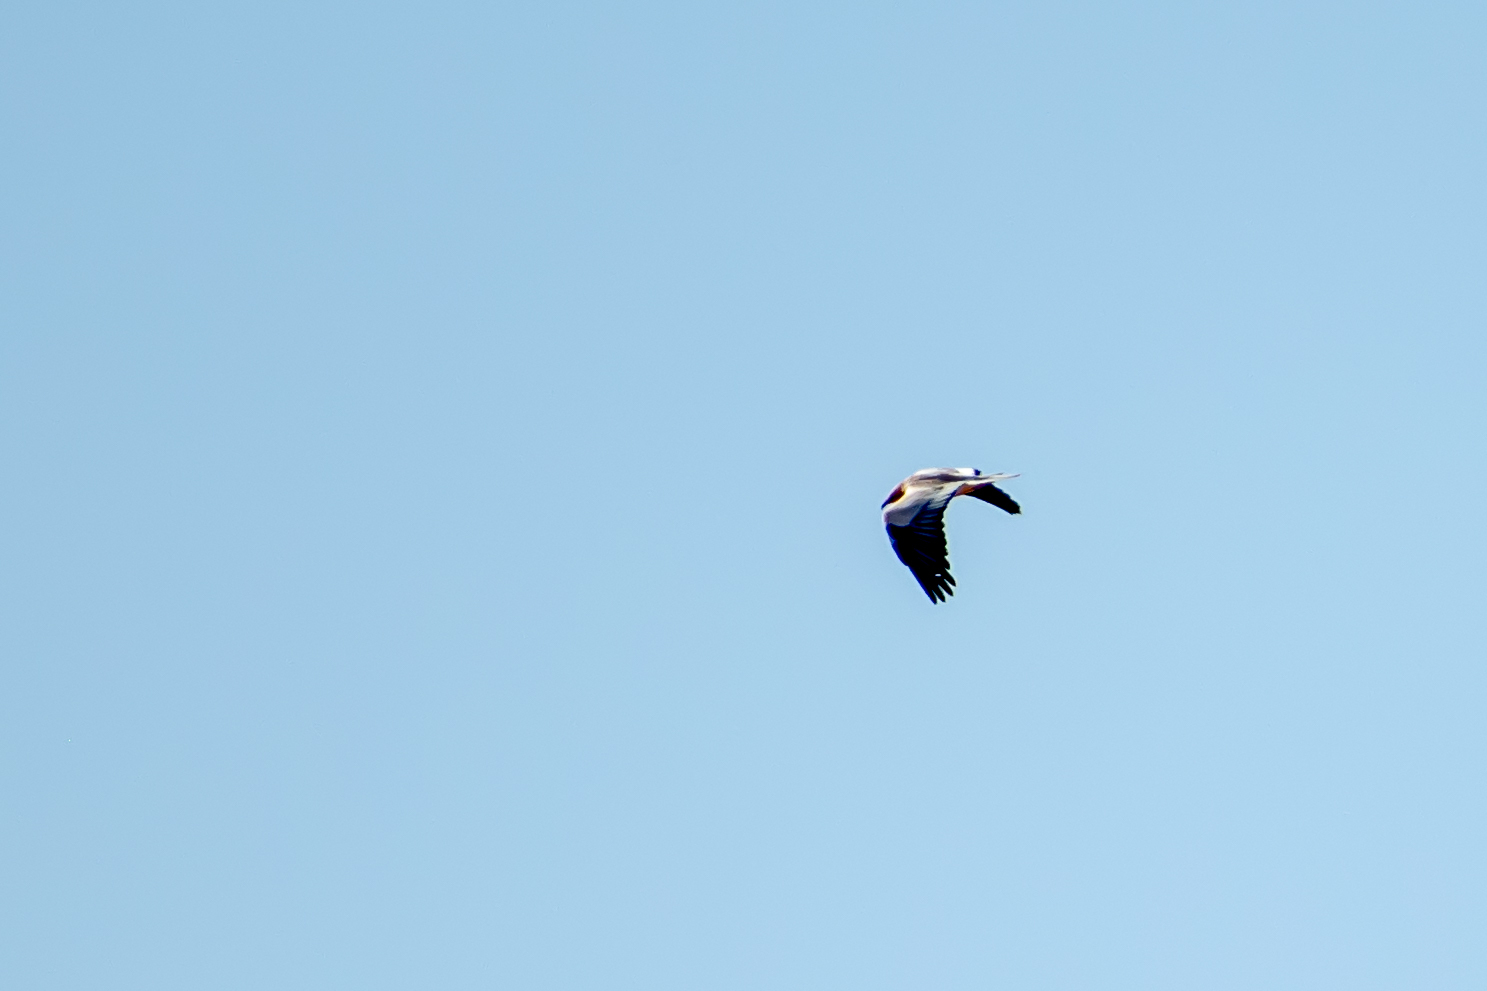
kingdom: Animalia
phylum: Chordata
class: Aves
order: Accipitriformes
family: Accipitridae
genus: Neophron
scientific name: Neophron percnopterus
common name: Egyptian vulture
